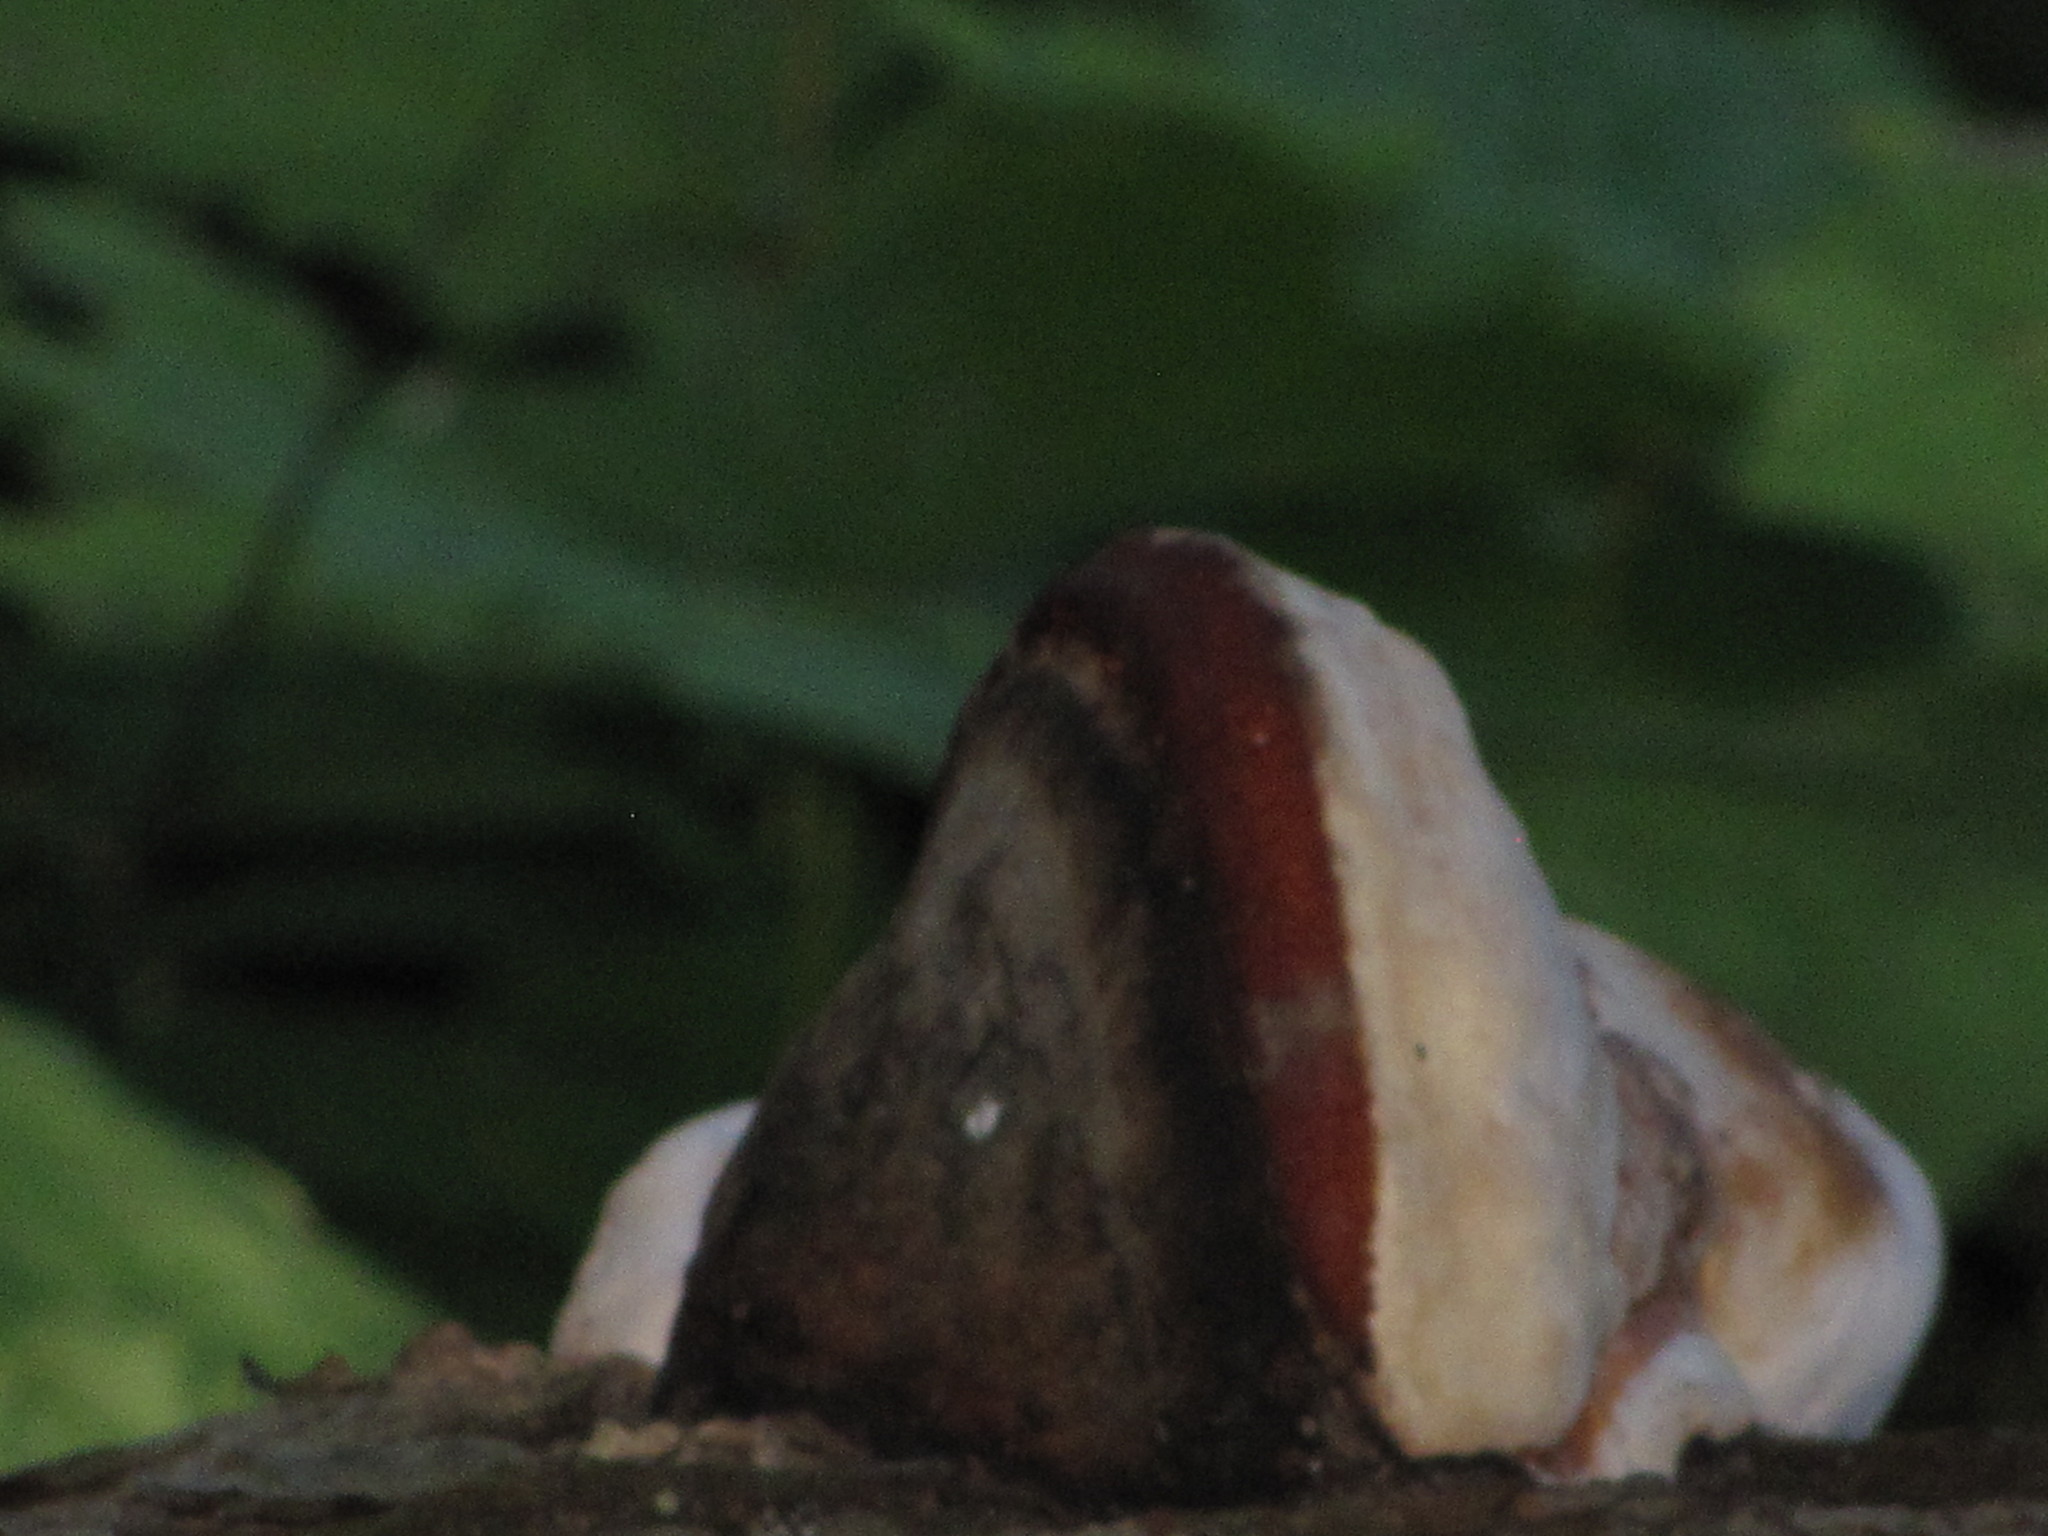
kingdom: Fungi
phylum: Basidiomycota
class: Agaricomycetes
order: Polyporales
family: Fomitopsidaceae
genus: Fomitopsis
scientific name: Fomitopsis mounceae
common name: Northern red belt
